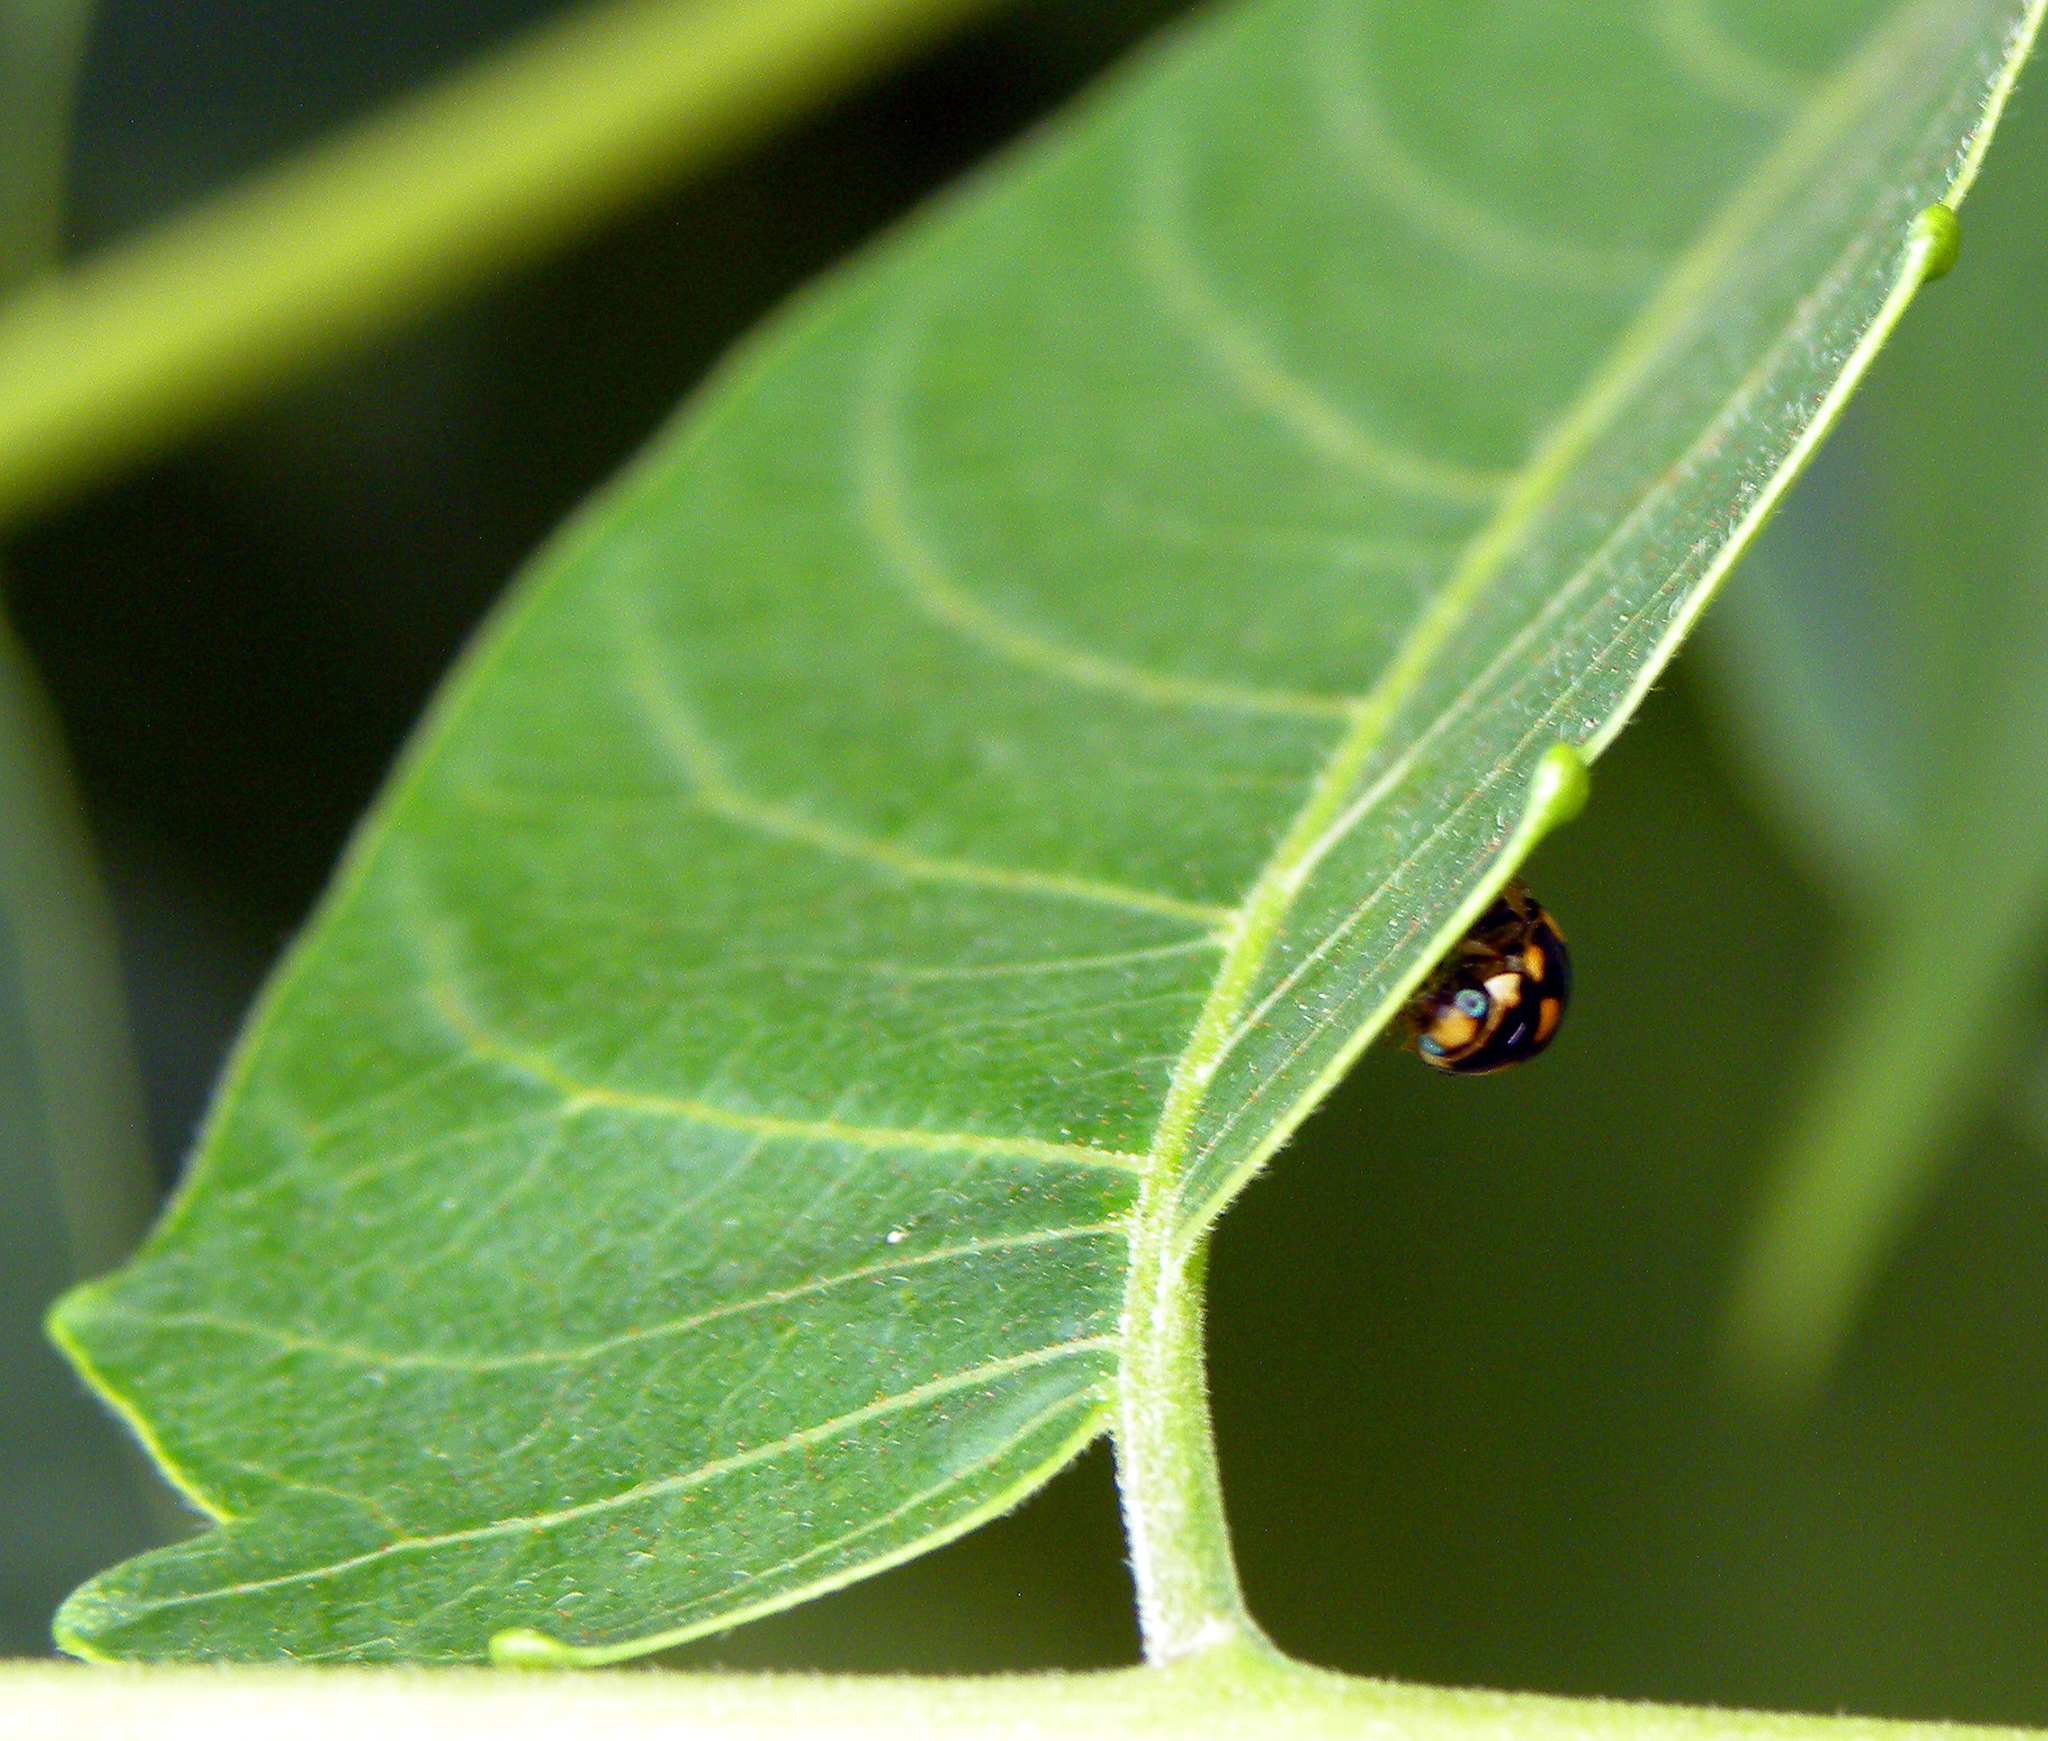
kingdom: Plantae
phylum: Tracheophyta
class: Magnoliopsida
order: Sapindales
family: Simaroubaceae
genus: Ailanthus
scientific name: Ailanthus altissima
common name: Tree-of-heaven
